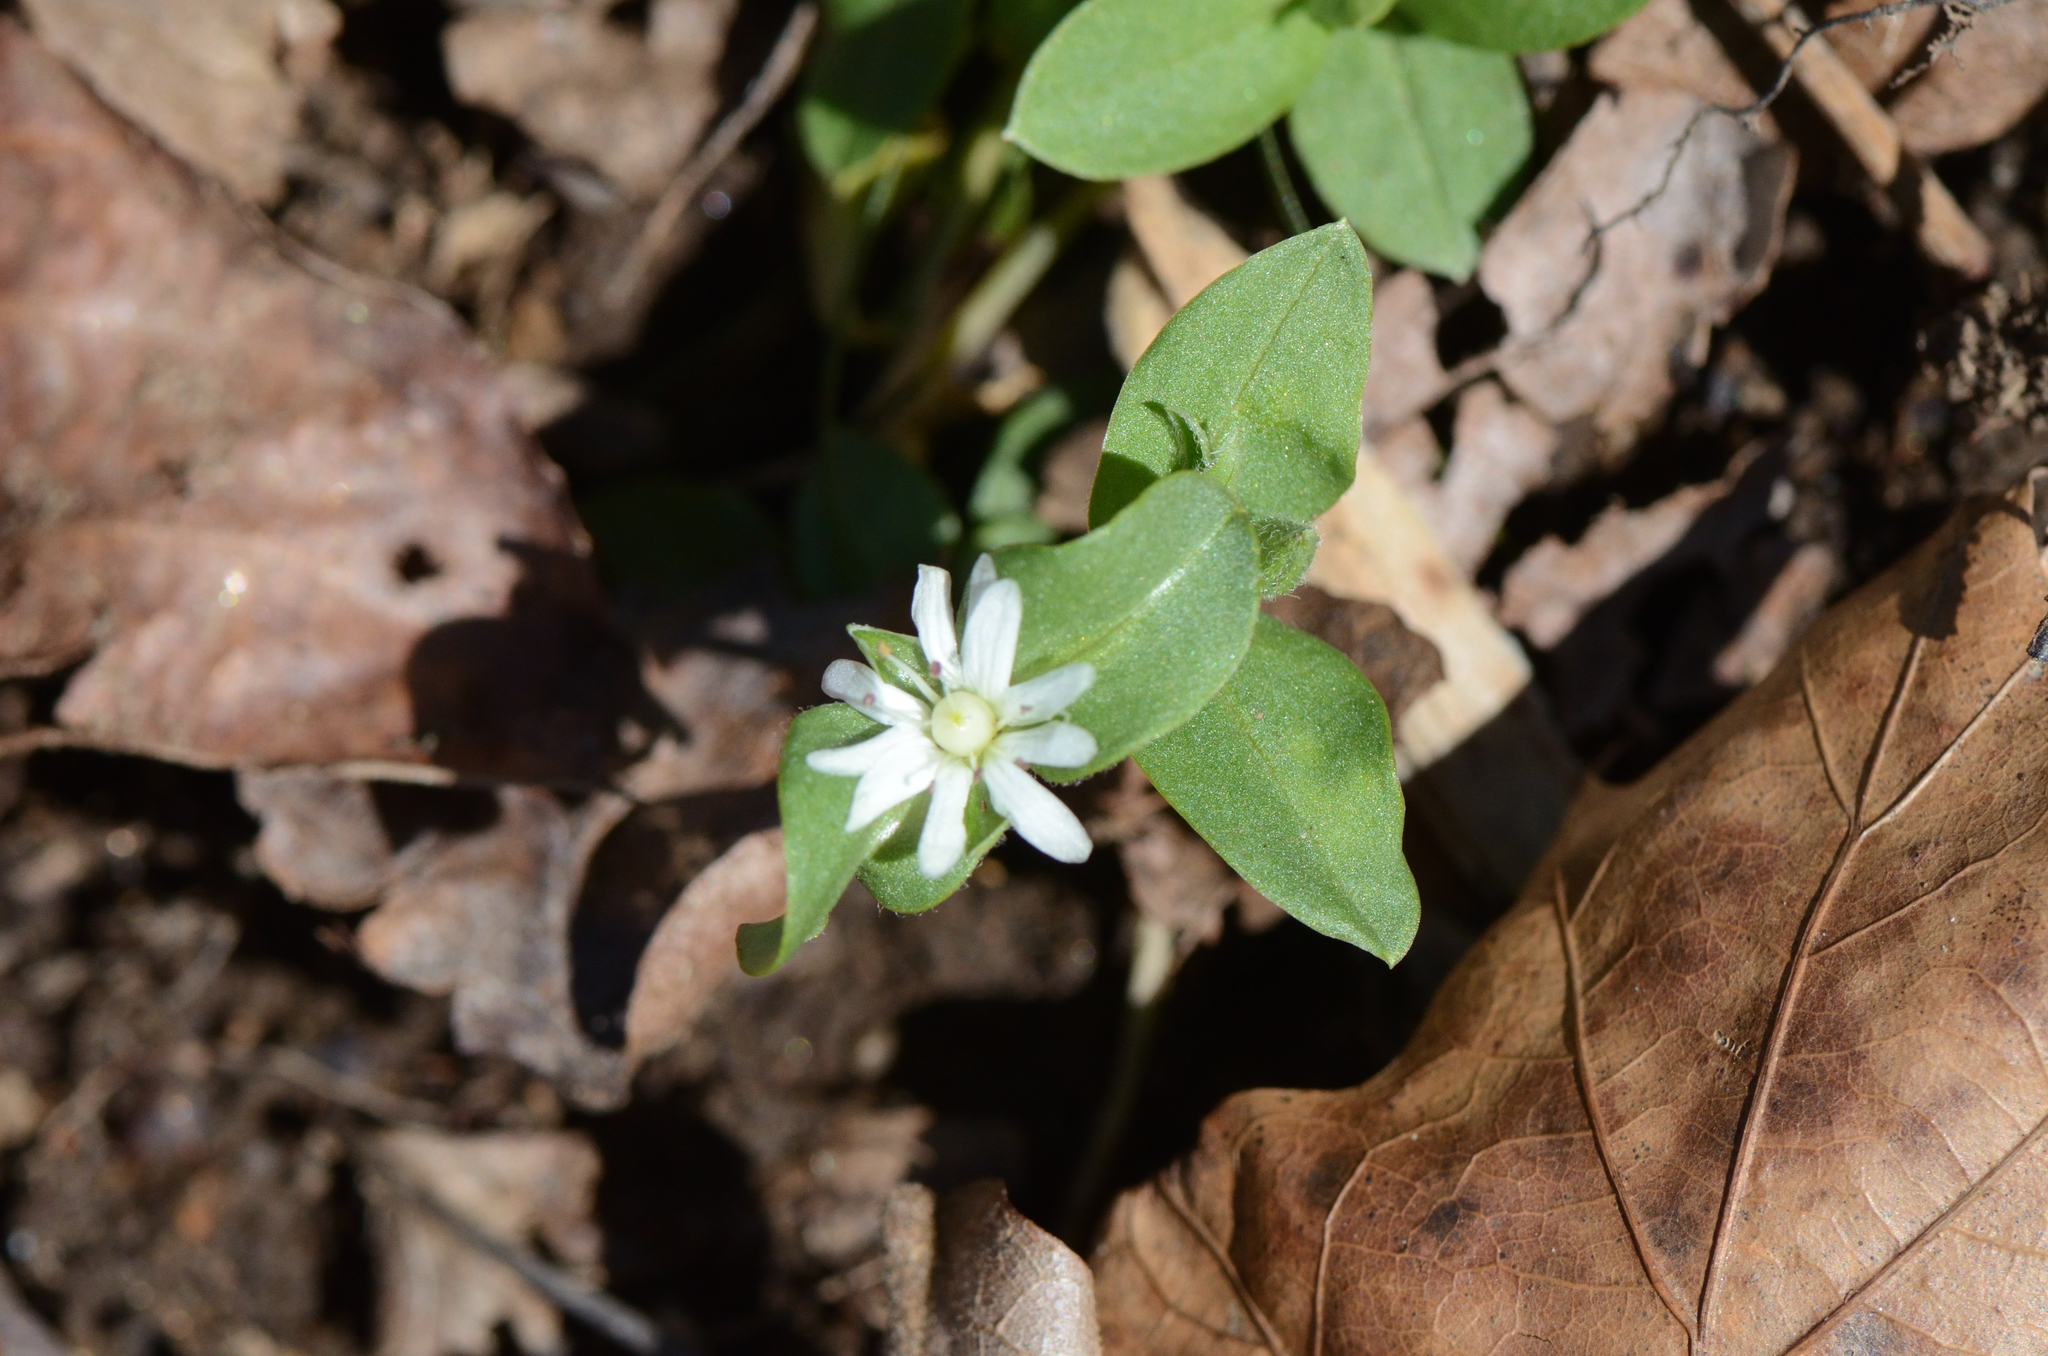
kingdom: Plantae
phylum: Tracheophyta
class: Magnoliopsida
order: Caryophyllales
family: Caryophyllaceae
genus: Stellaria
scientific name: Stellaria pubera
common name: Star chickweed
